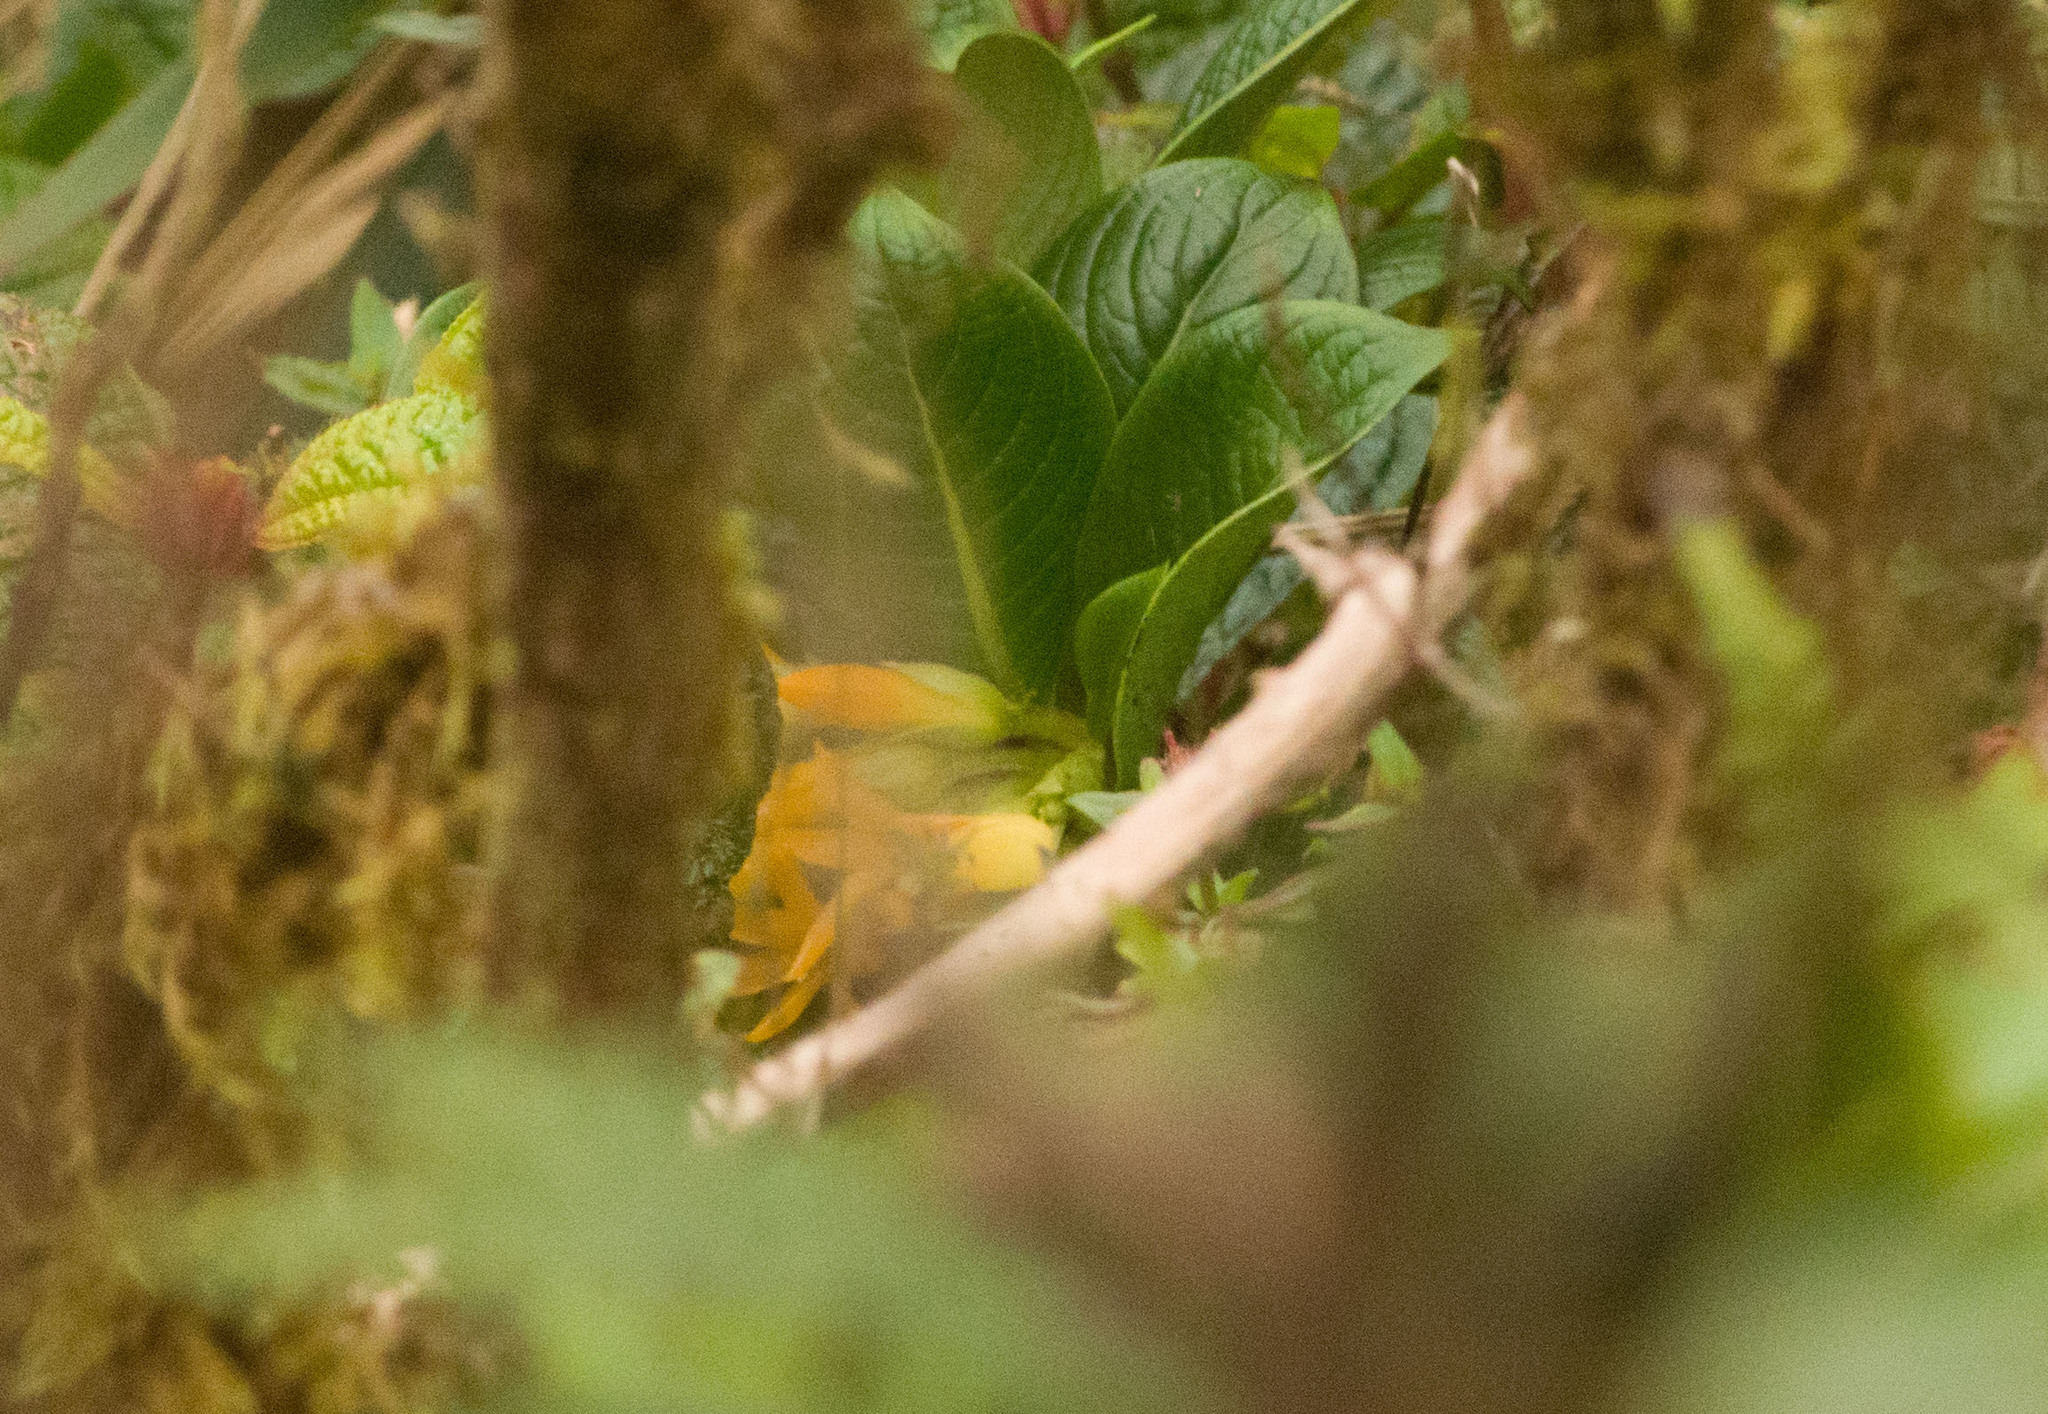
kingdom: Plantae
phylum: Tracheophyta
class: Magnoliopsida
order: Gentianales
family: Loganiaceae
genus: Geniostoma
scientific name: Geniostoma hosakanum
